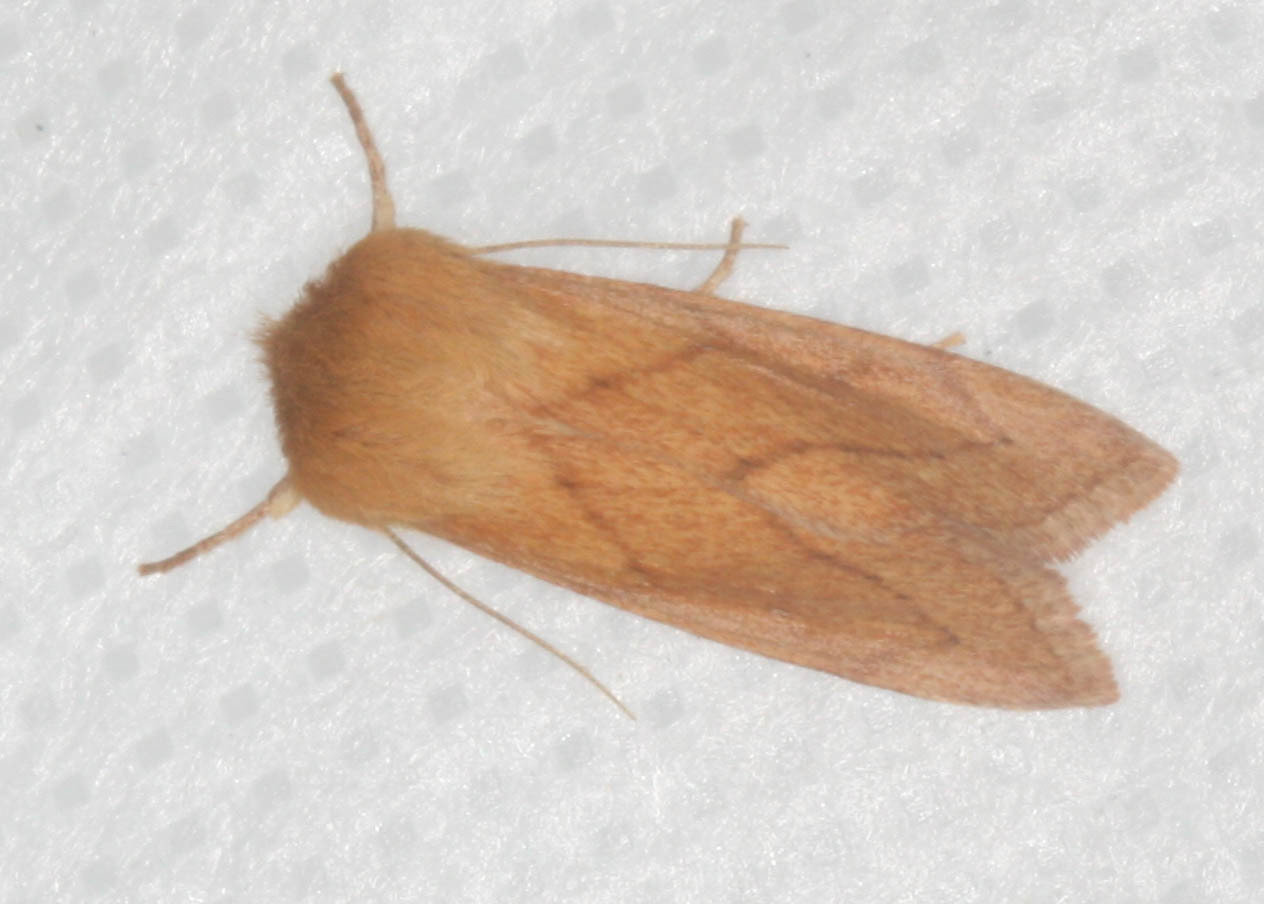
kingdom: Animalia
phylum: Arthropoda
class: Insecta
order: Lepidoptera
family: Noctuidae
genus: Zosteropoda
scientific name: Zosteropoda hirtipes
